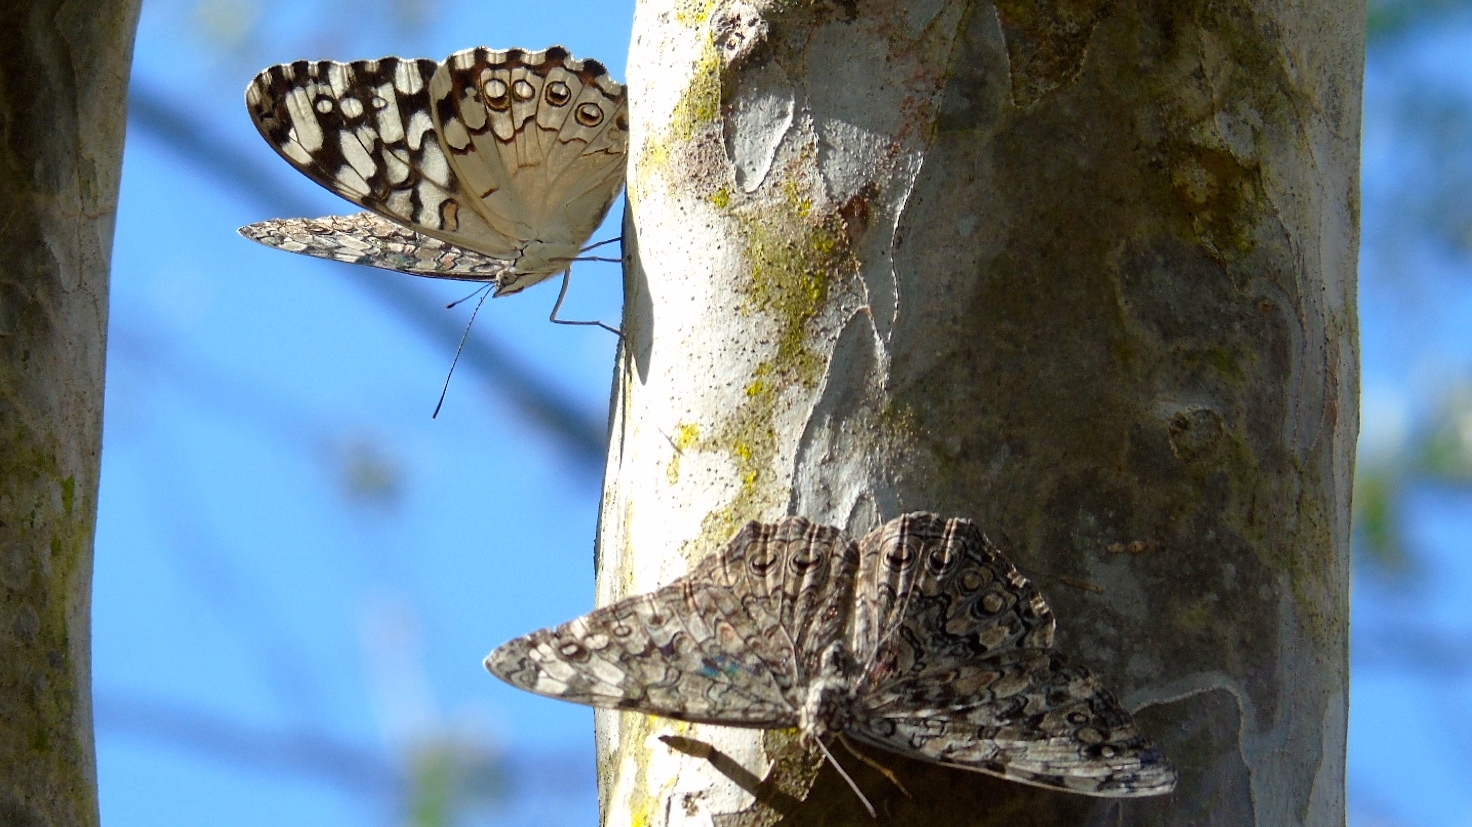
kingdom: Animalia
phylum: Arthropoda
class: Insecta
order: Lepidoptera
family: Nymphalidae
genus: Hamadryas
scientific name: Hamadryas februa
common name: Gray cracker
